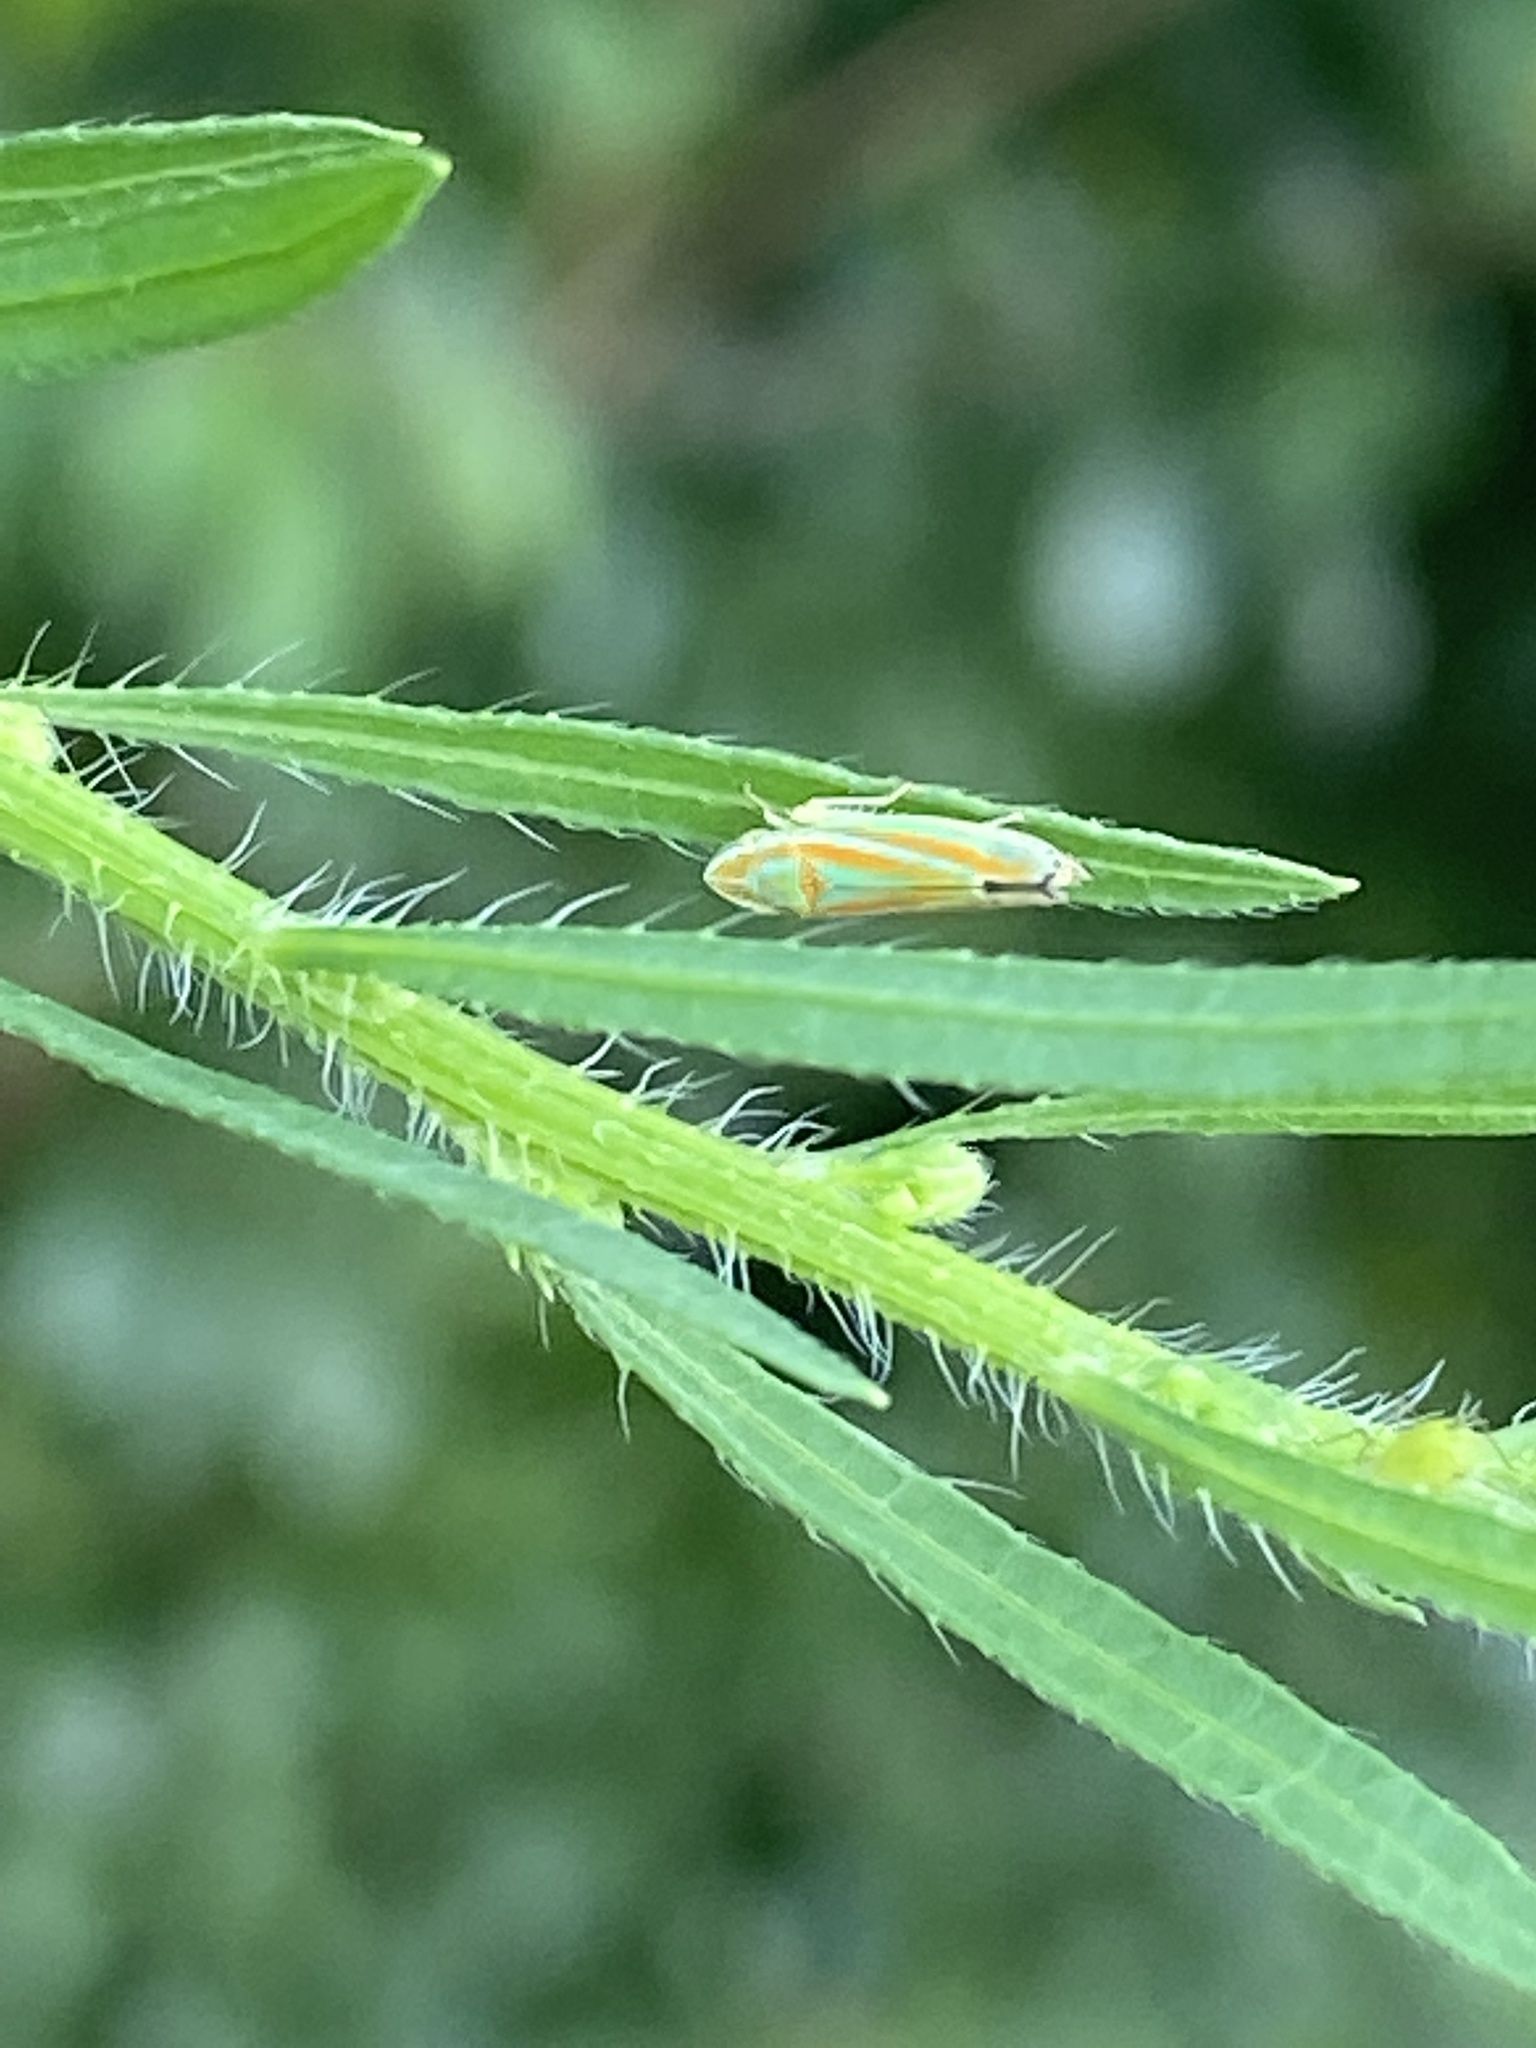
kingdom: Animalia
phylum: Arthropoda
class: Insecta
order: Hemiptera
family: Cicadellidae
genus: Graphocephala
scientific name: Graphocephala versuta
